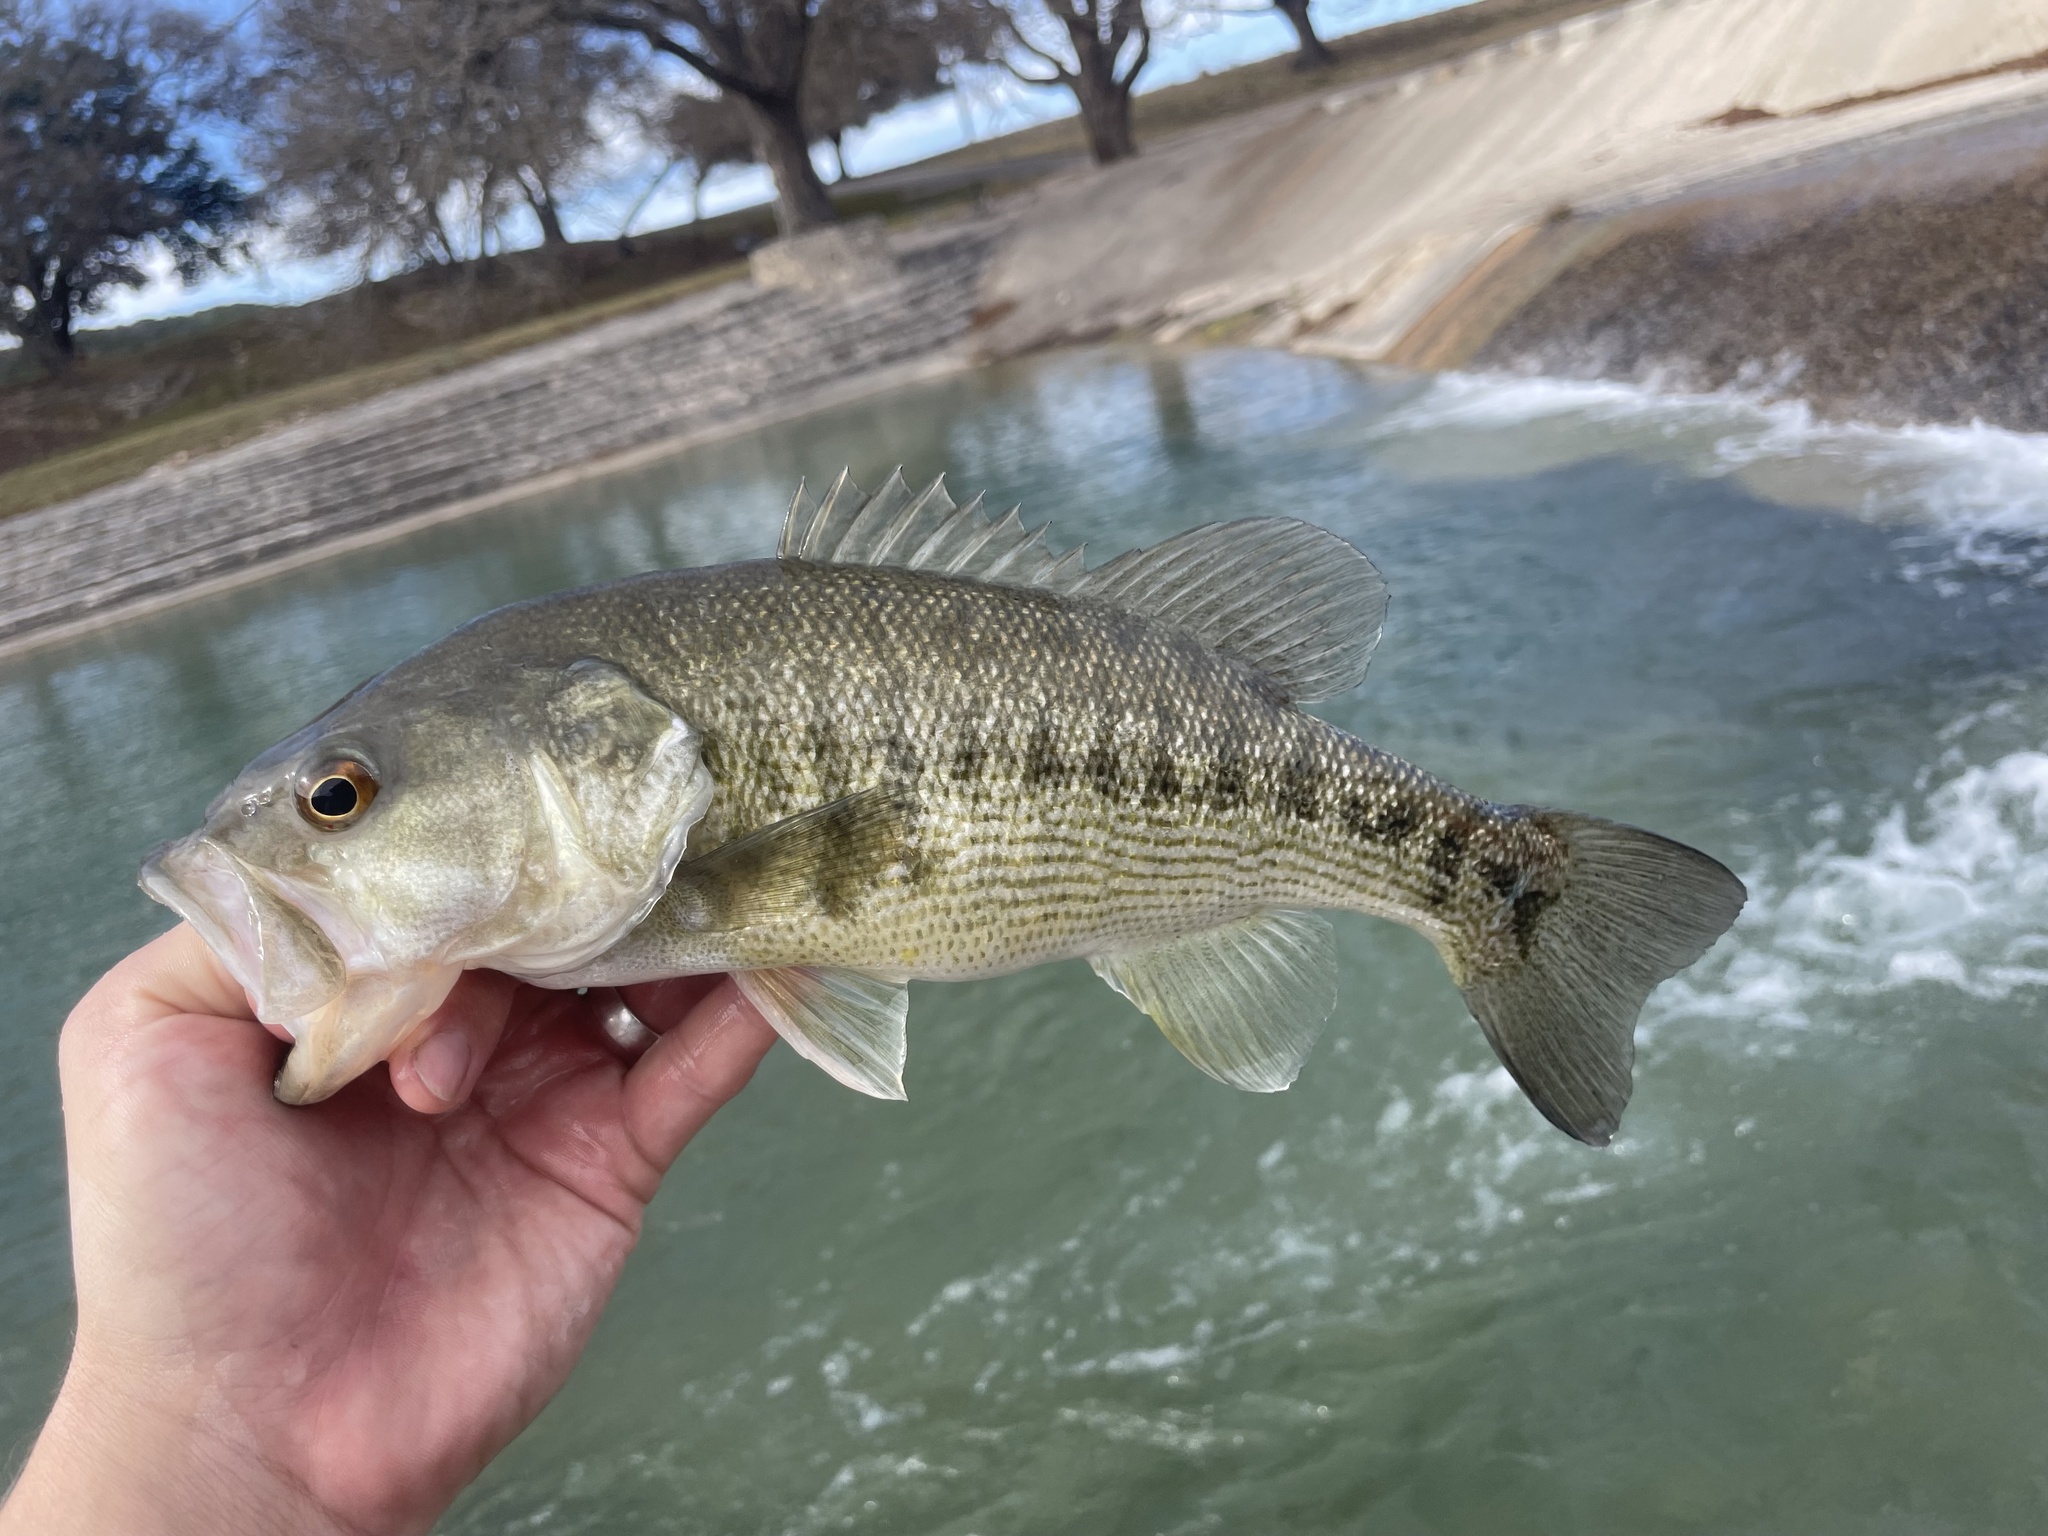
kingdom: Animalia
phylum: Chordata
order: Perciformes
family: Centrarchidae
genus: Micropterus
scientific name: Micropterus treculii
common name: Guadalupe bass
